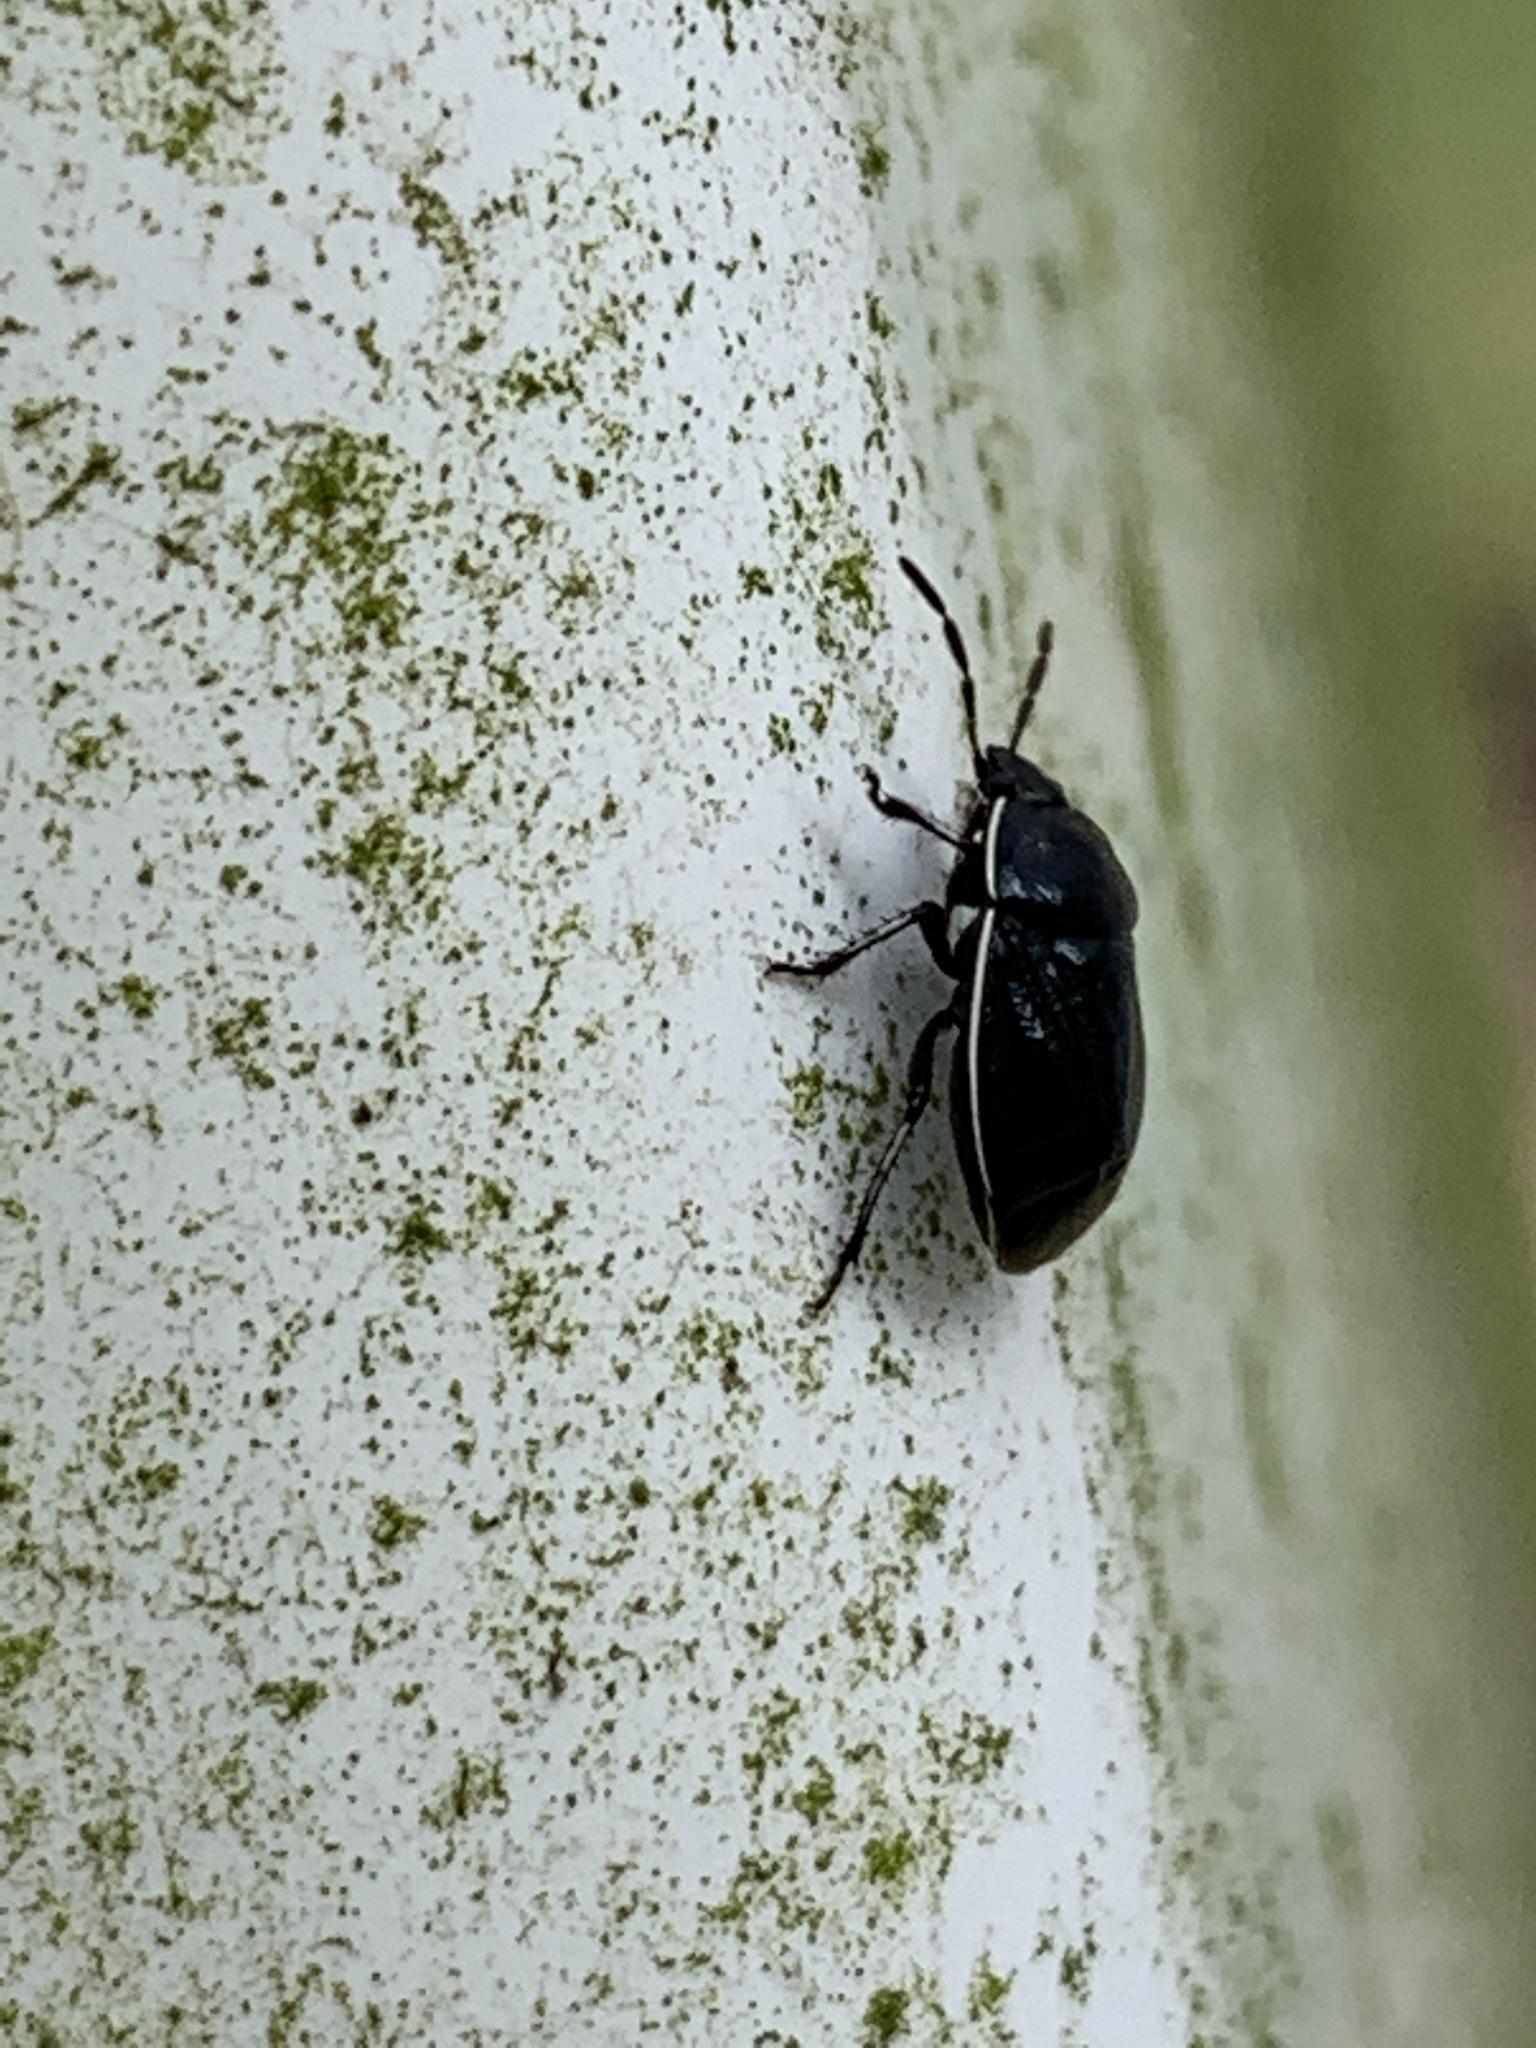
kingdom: Animalia
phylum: Arthropoda
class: Insecta
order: Hemiptera
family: Cydnidae
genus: Sehirus
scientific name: Sehirus cinctus
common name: White-margined burrower bug
